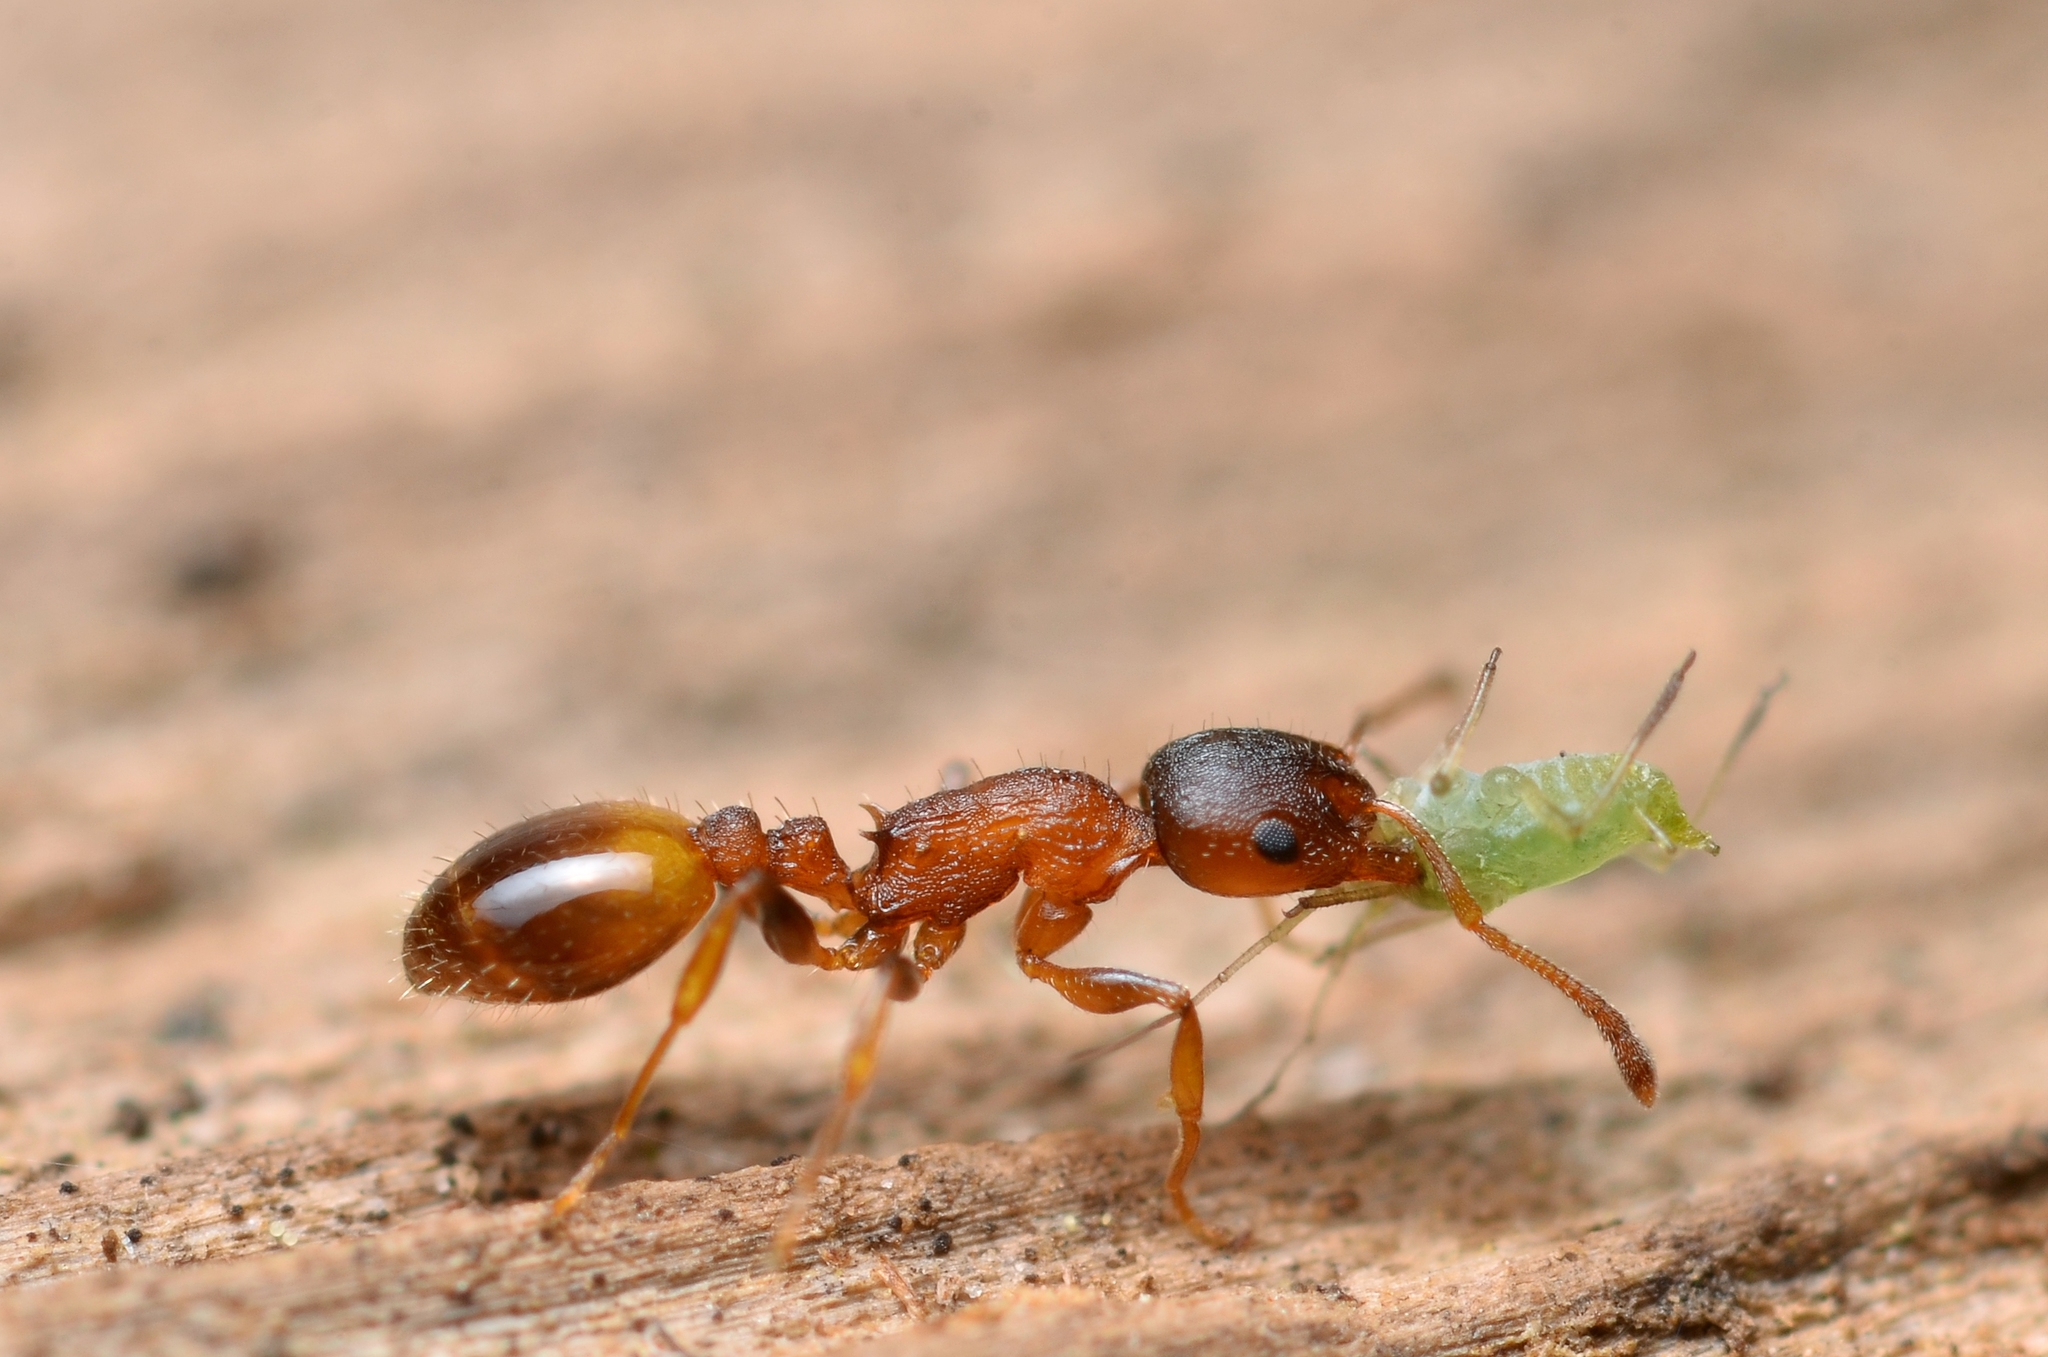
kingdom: Animalia
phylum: Arthropoda
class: Insecta
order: Hymenoptera
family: Formicidae
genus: Leptothorax
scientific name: Leptothorax affinis
